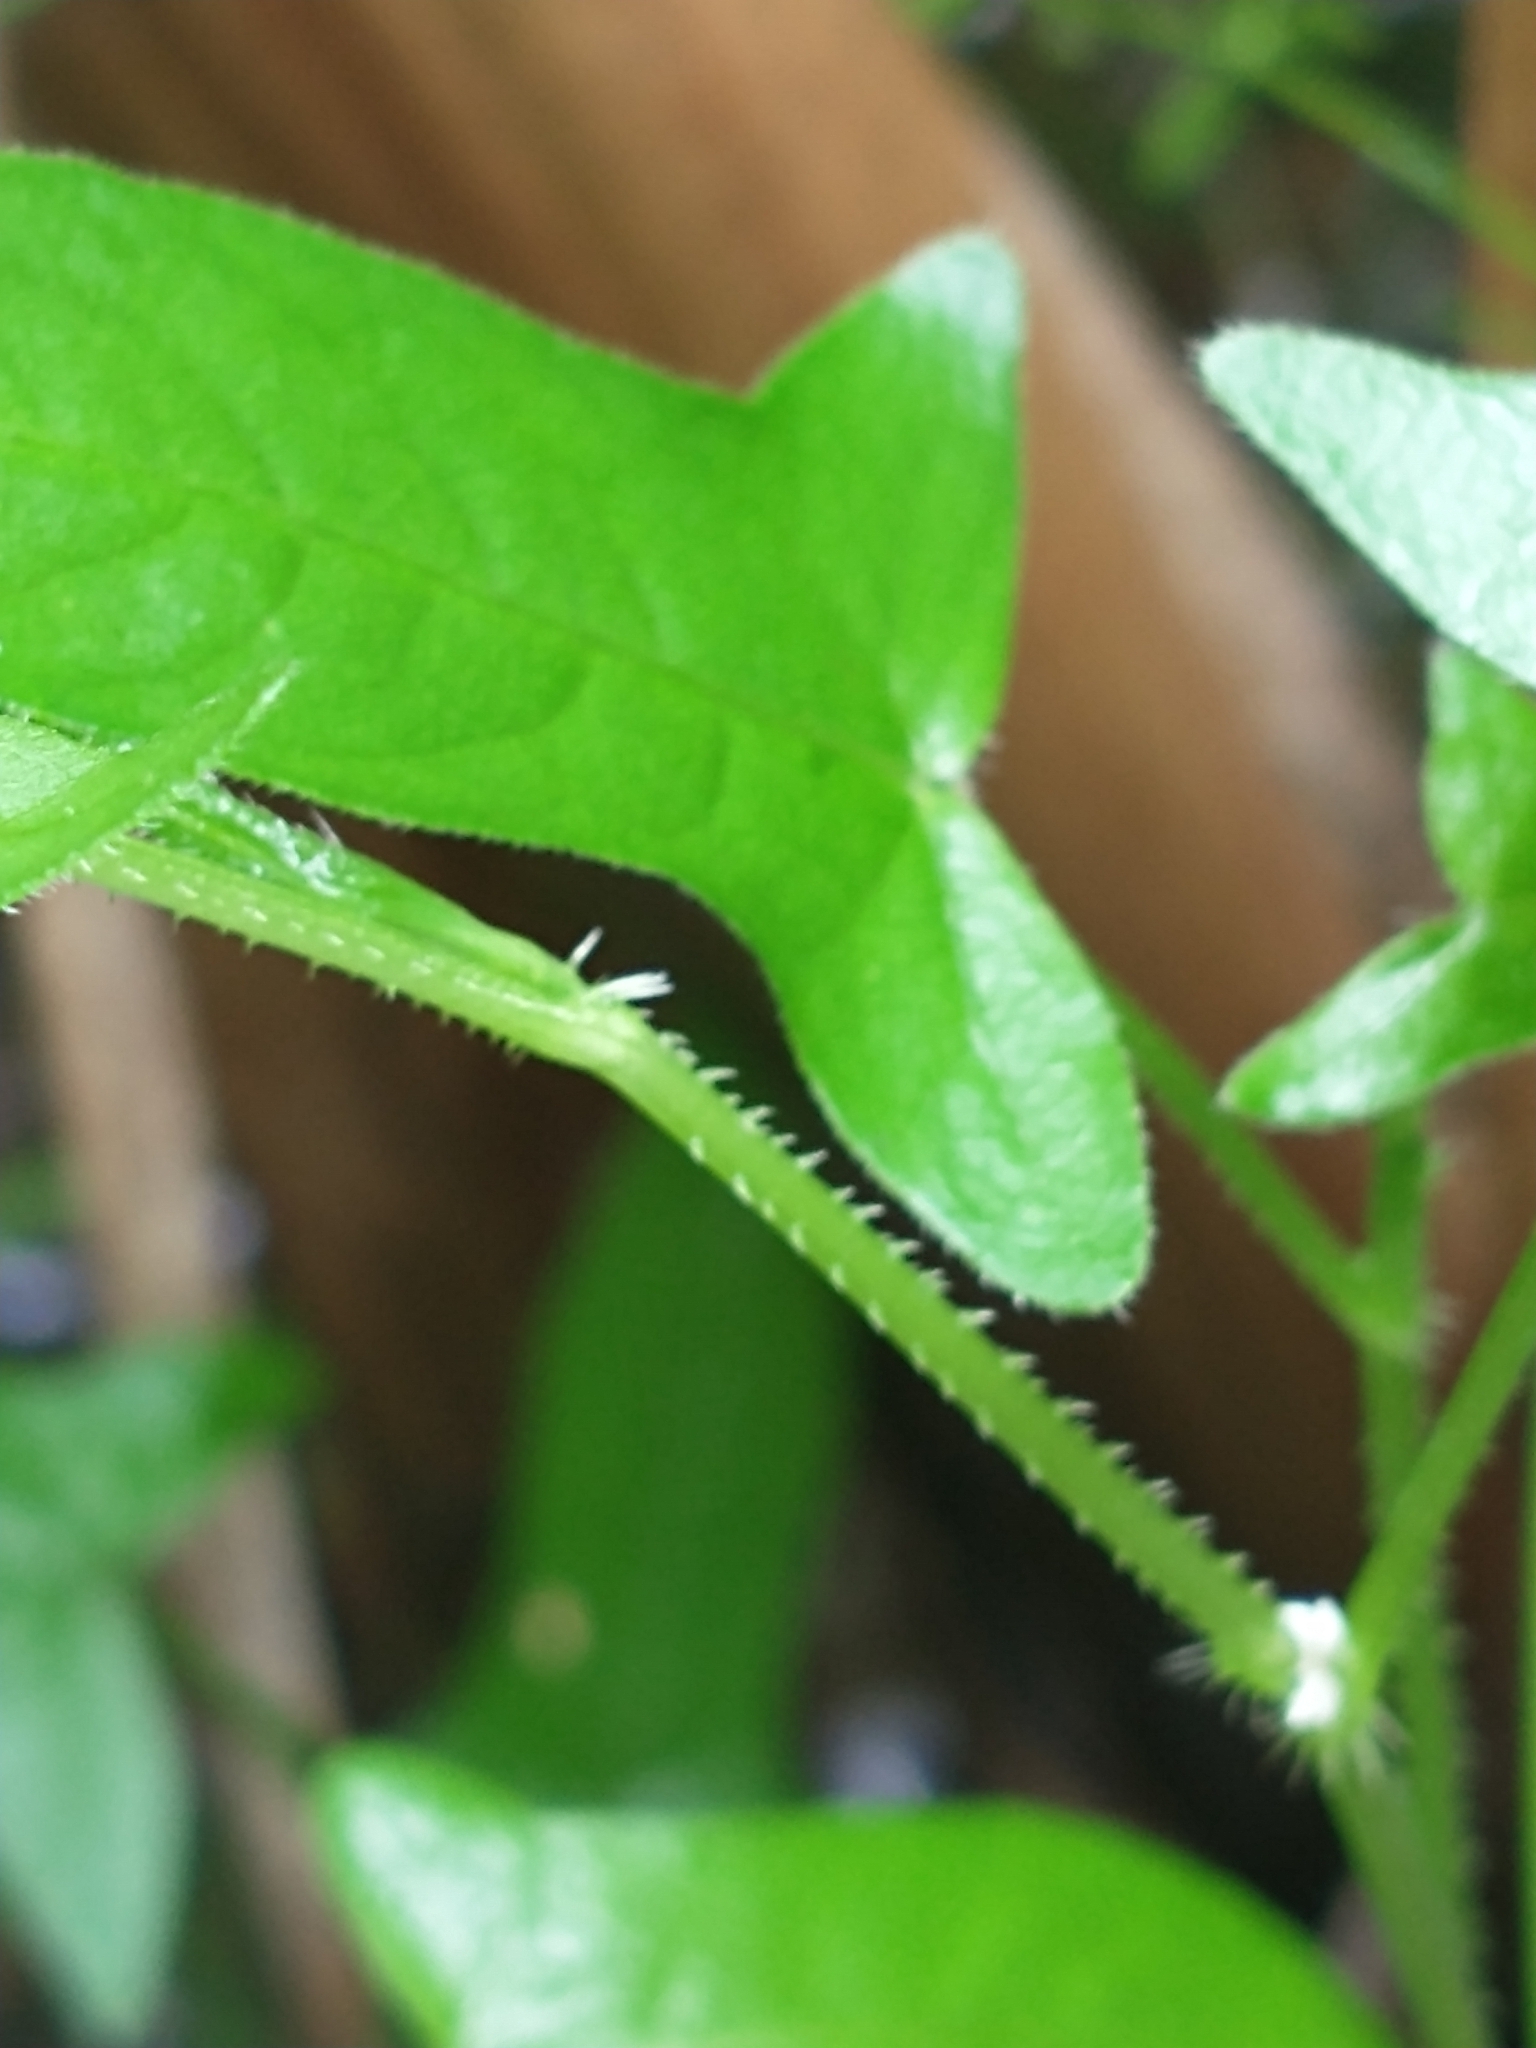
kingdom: Plantae
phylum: Tracheophyta
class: Magnoliopsida
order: Caryophyllales
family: Polygonaceae
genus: Persicaria
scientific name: Persicaria arifolia
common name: Halberd-leaved tear-thumb
